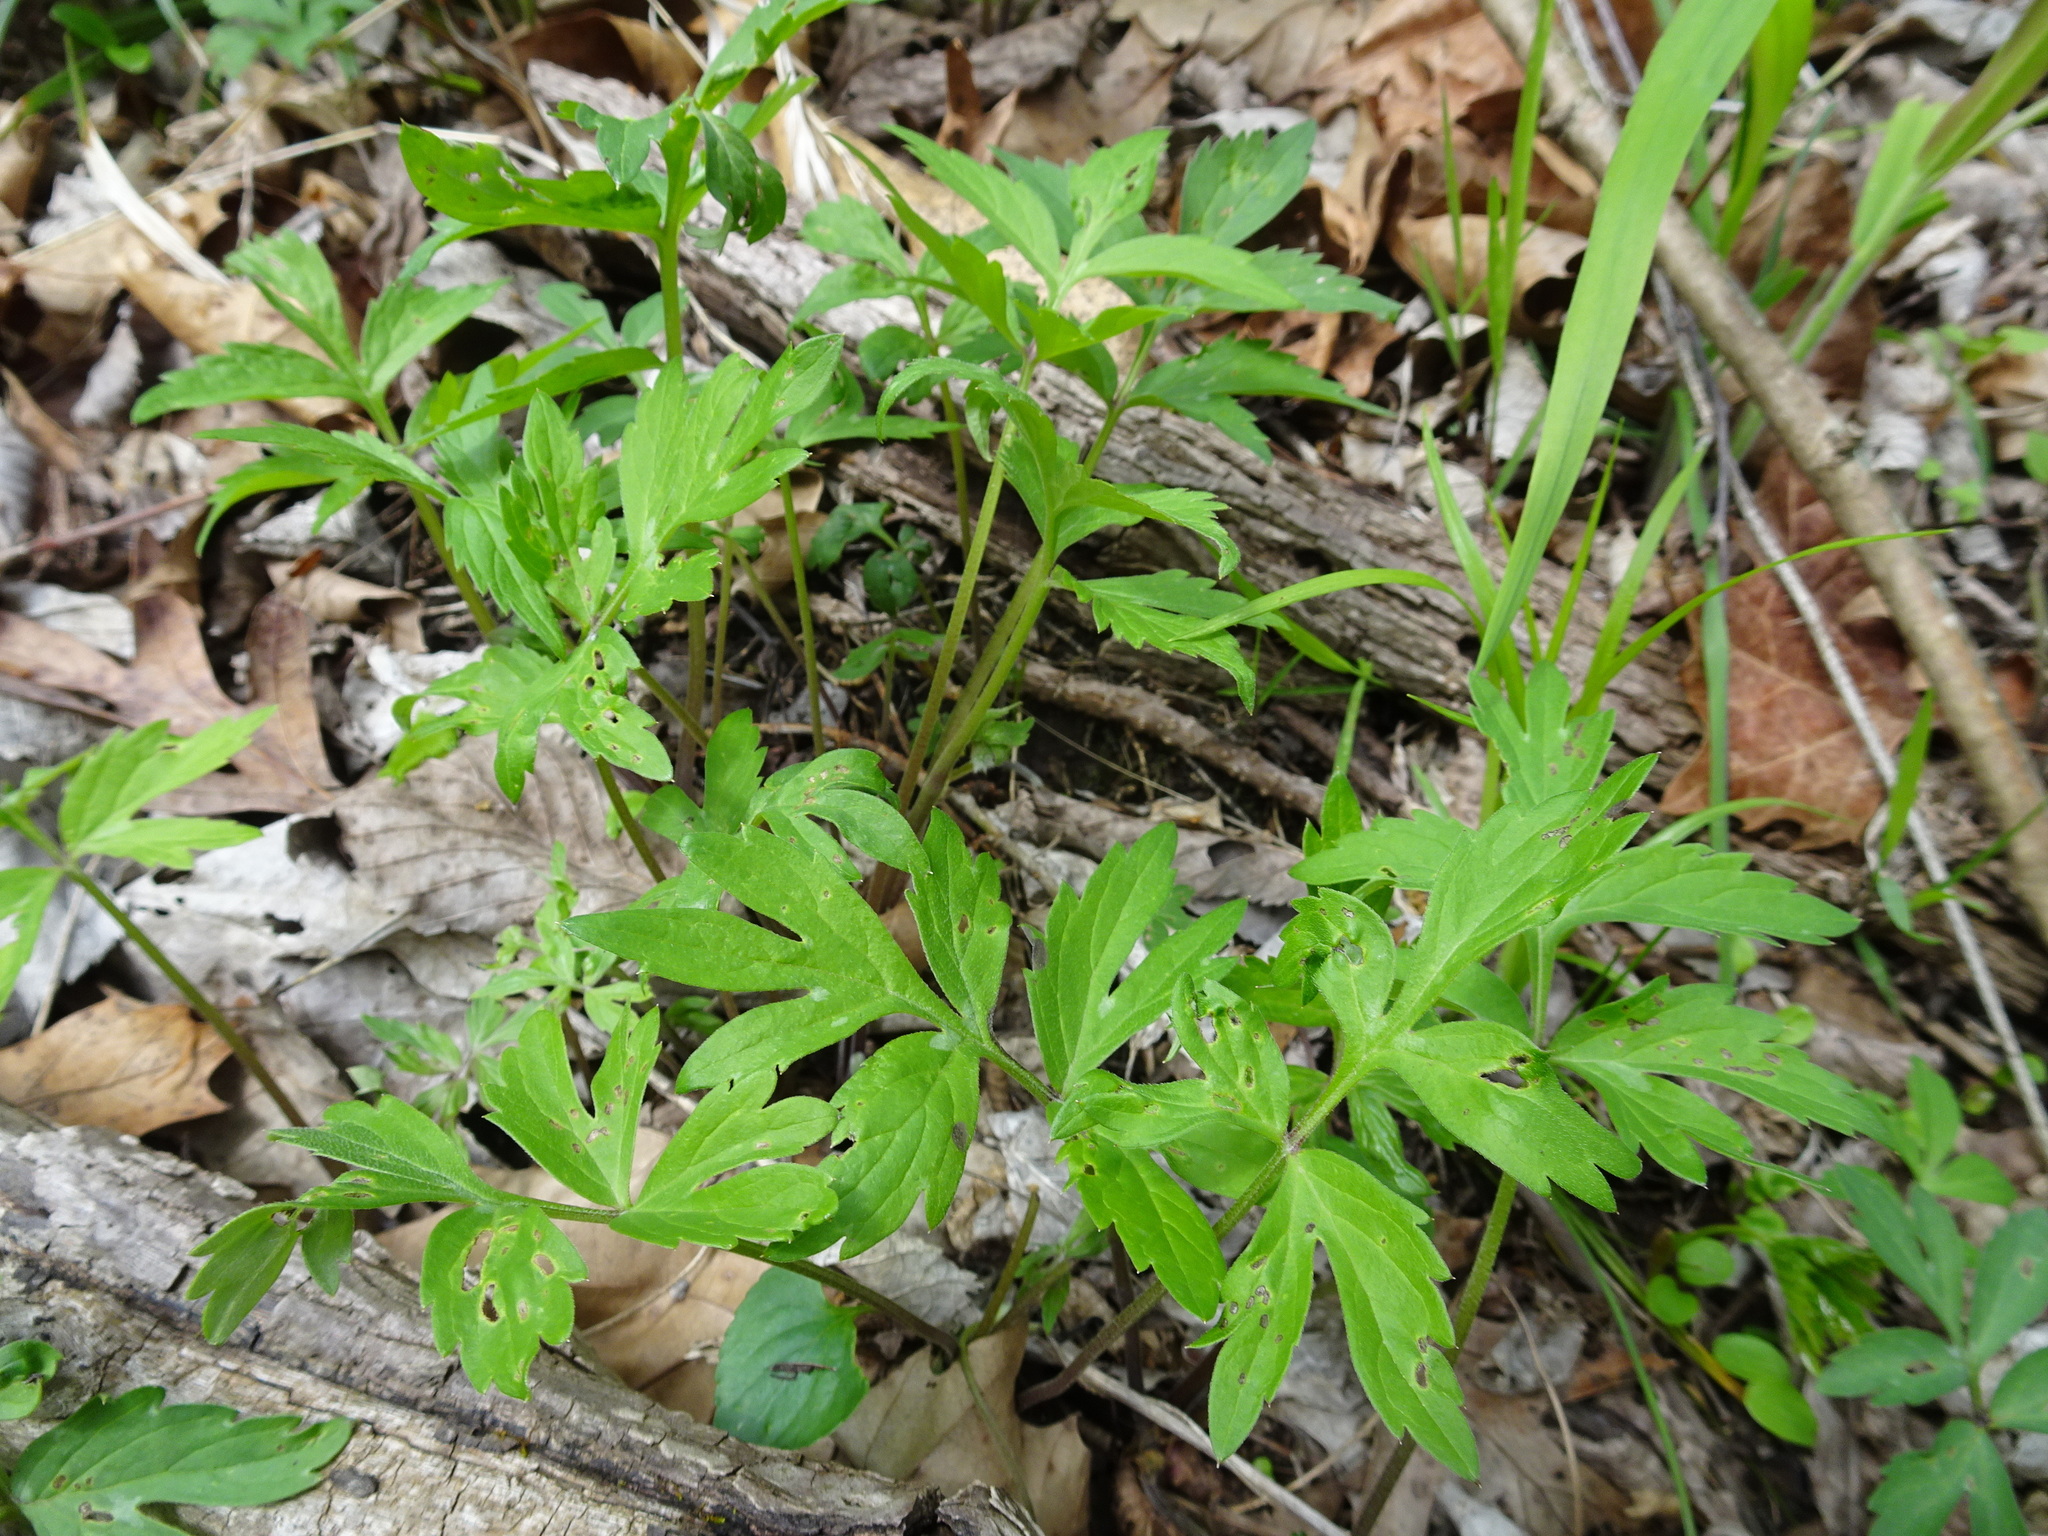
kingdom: Plantae
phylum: Tracheophyta
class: Magnoliopsida
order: Boraginales
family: Hydrophyllaceae
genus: Hydrophyllum
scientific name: Hydrophyllum virginianum
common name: Virginia waterleaf
